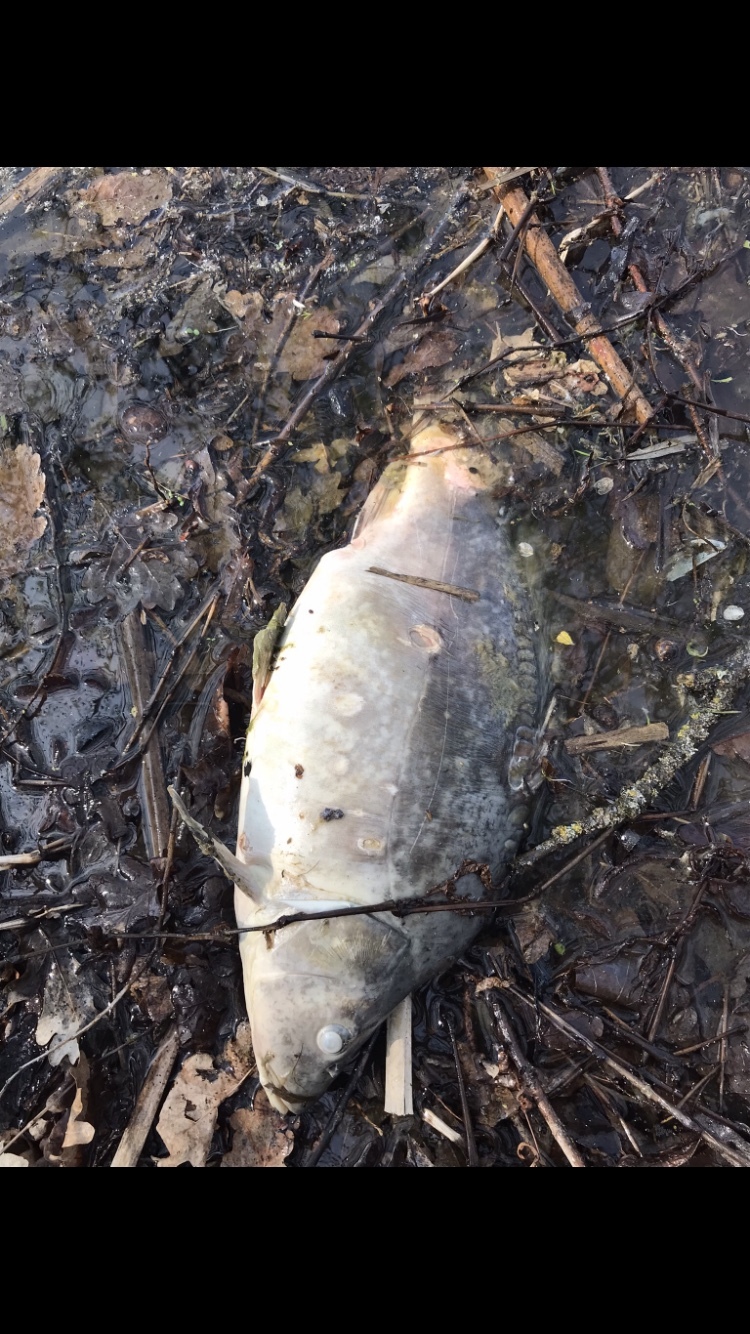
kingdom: Animalia
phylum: Chordata
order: Cypriniformes
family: Cyprinidae
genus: Cyprinus
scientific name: Cyprinus carpio
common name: Common carp
